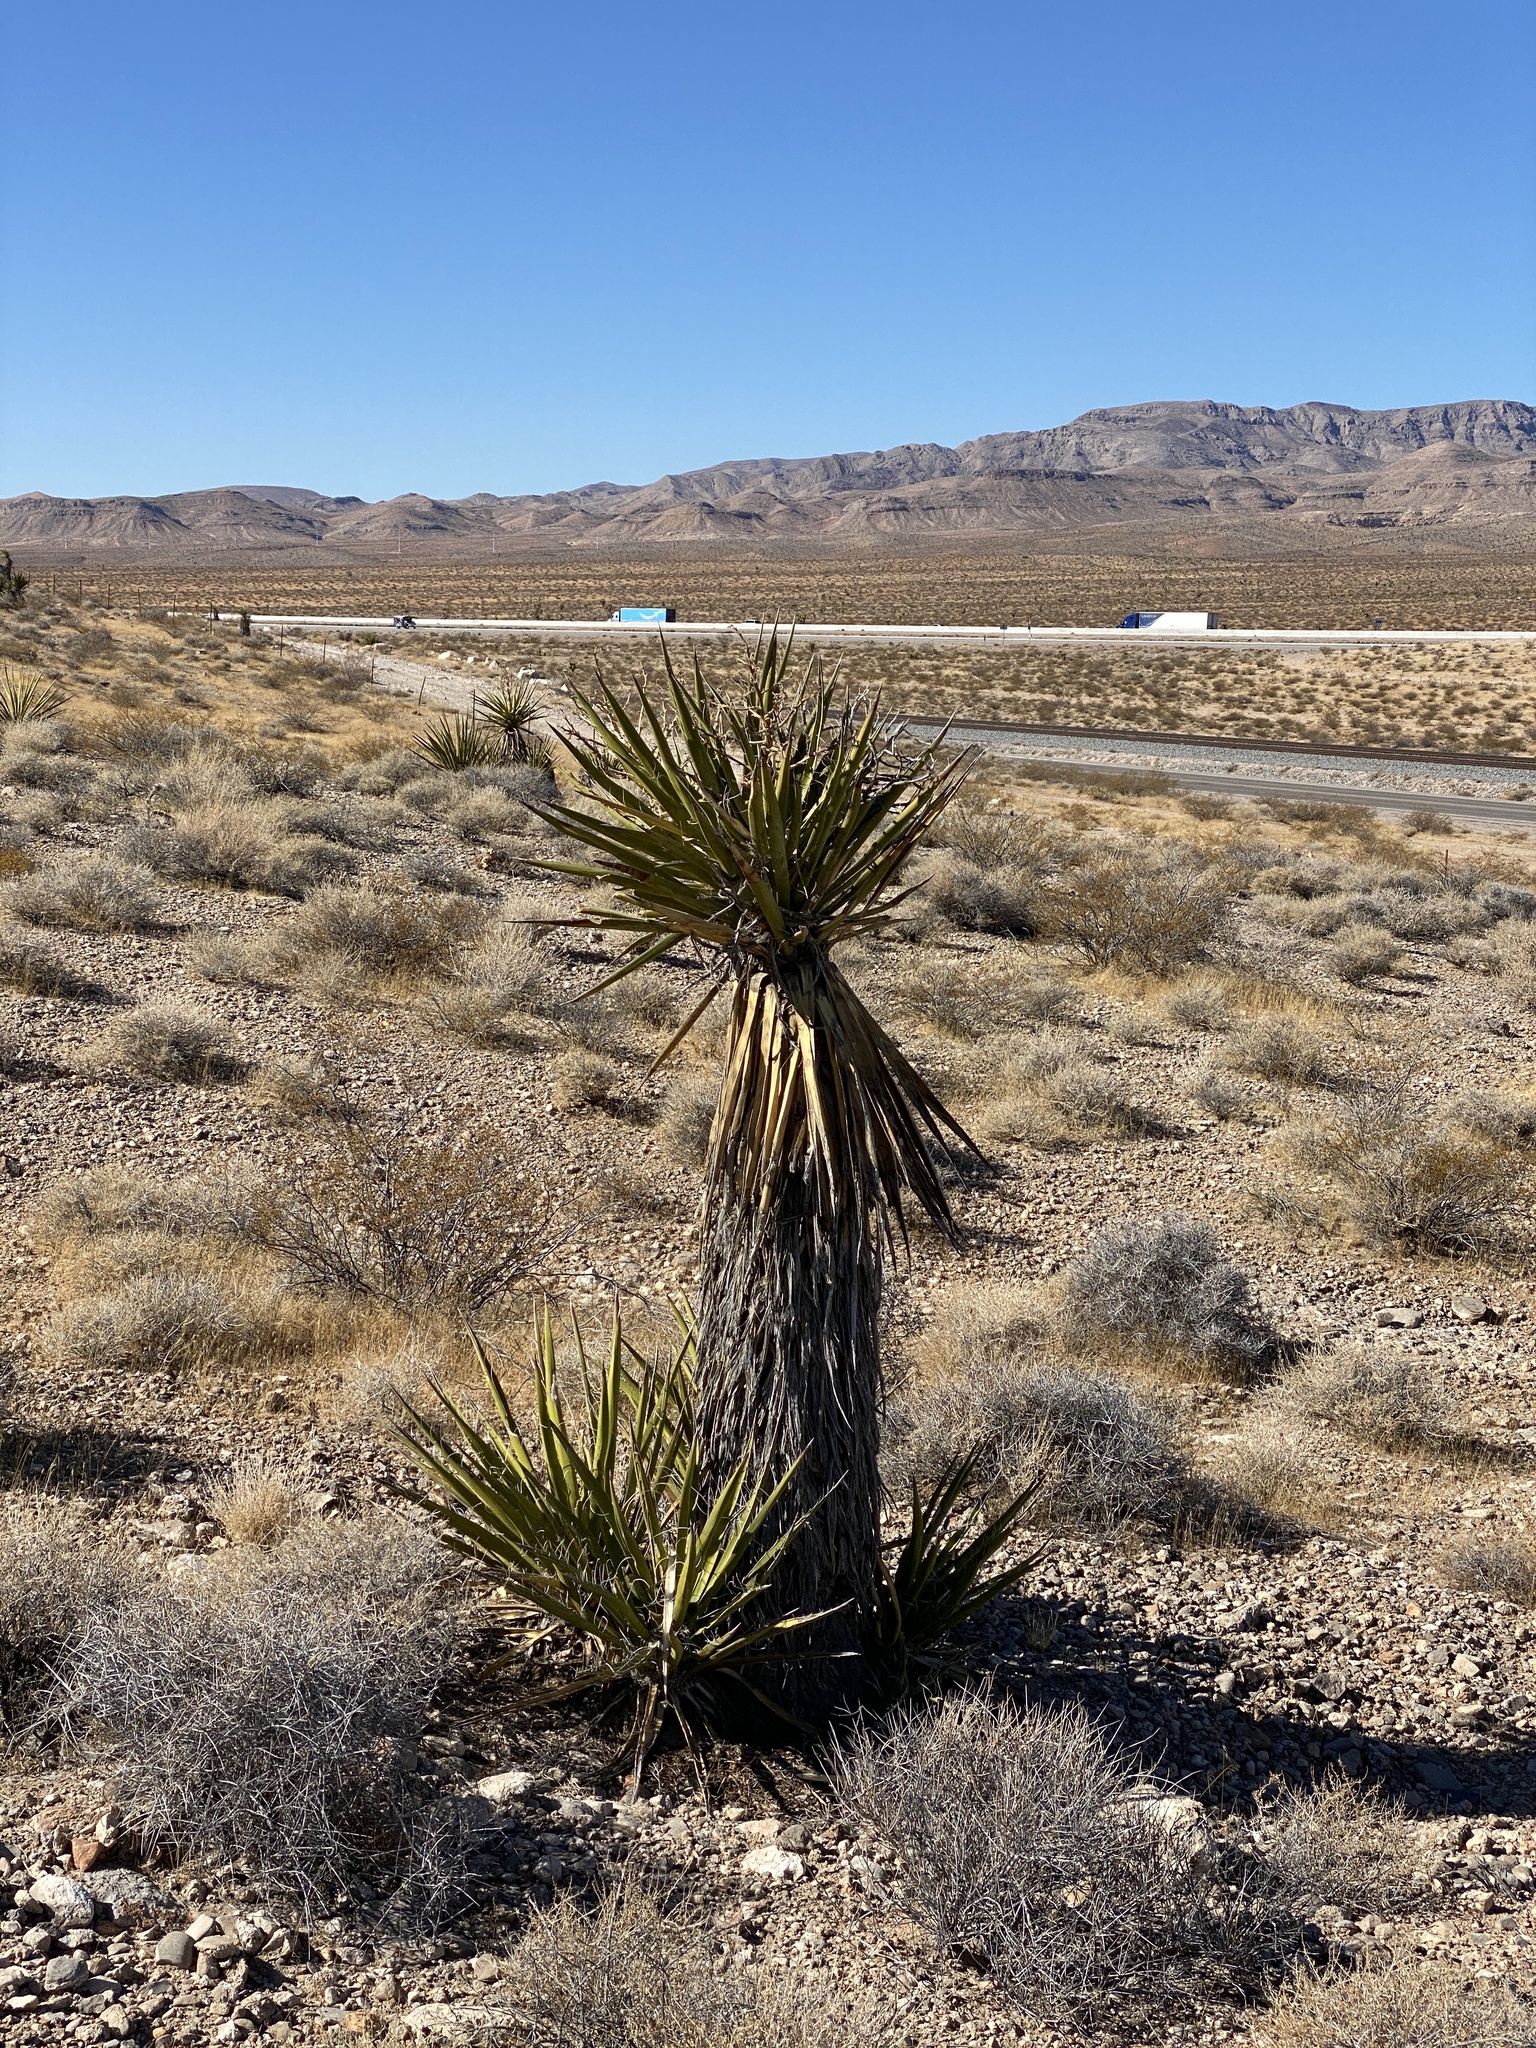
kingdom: Plantae
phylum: Tracheophyta
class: Liliopsida
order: Asparagales
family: Asparagaceae
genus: Yucca
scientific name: Yucca schidigera
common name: Mojave yucca
